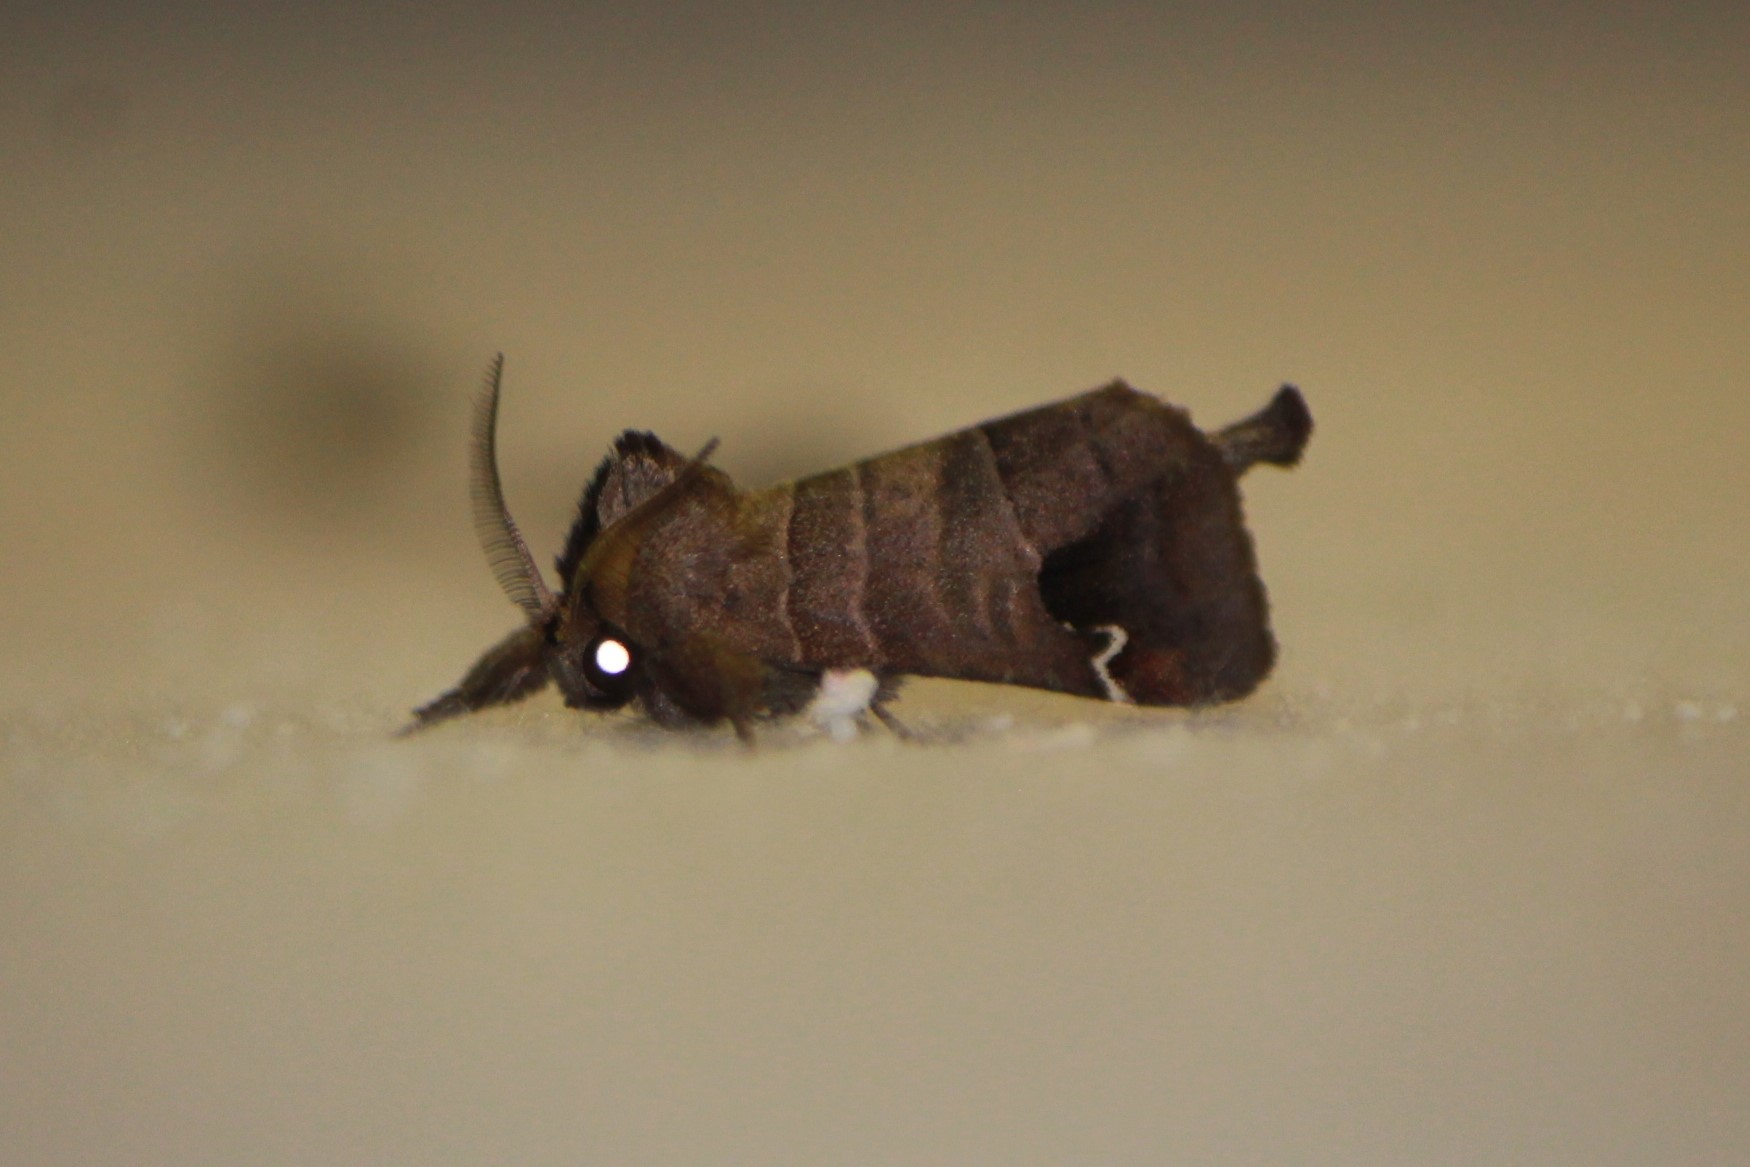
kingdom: Animalia
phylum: Arthropoda
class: Insecta
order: Lepidoptera
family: Notodontidae
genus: Clostera
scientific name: Clostera albosigma
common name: Sigmoid prominent
